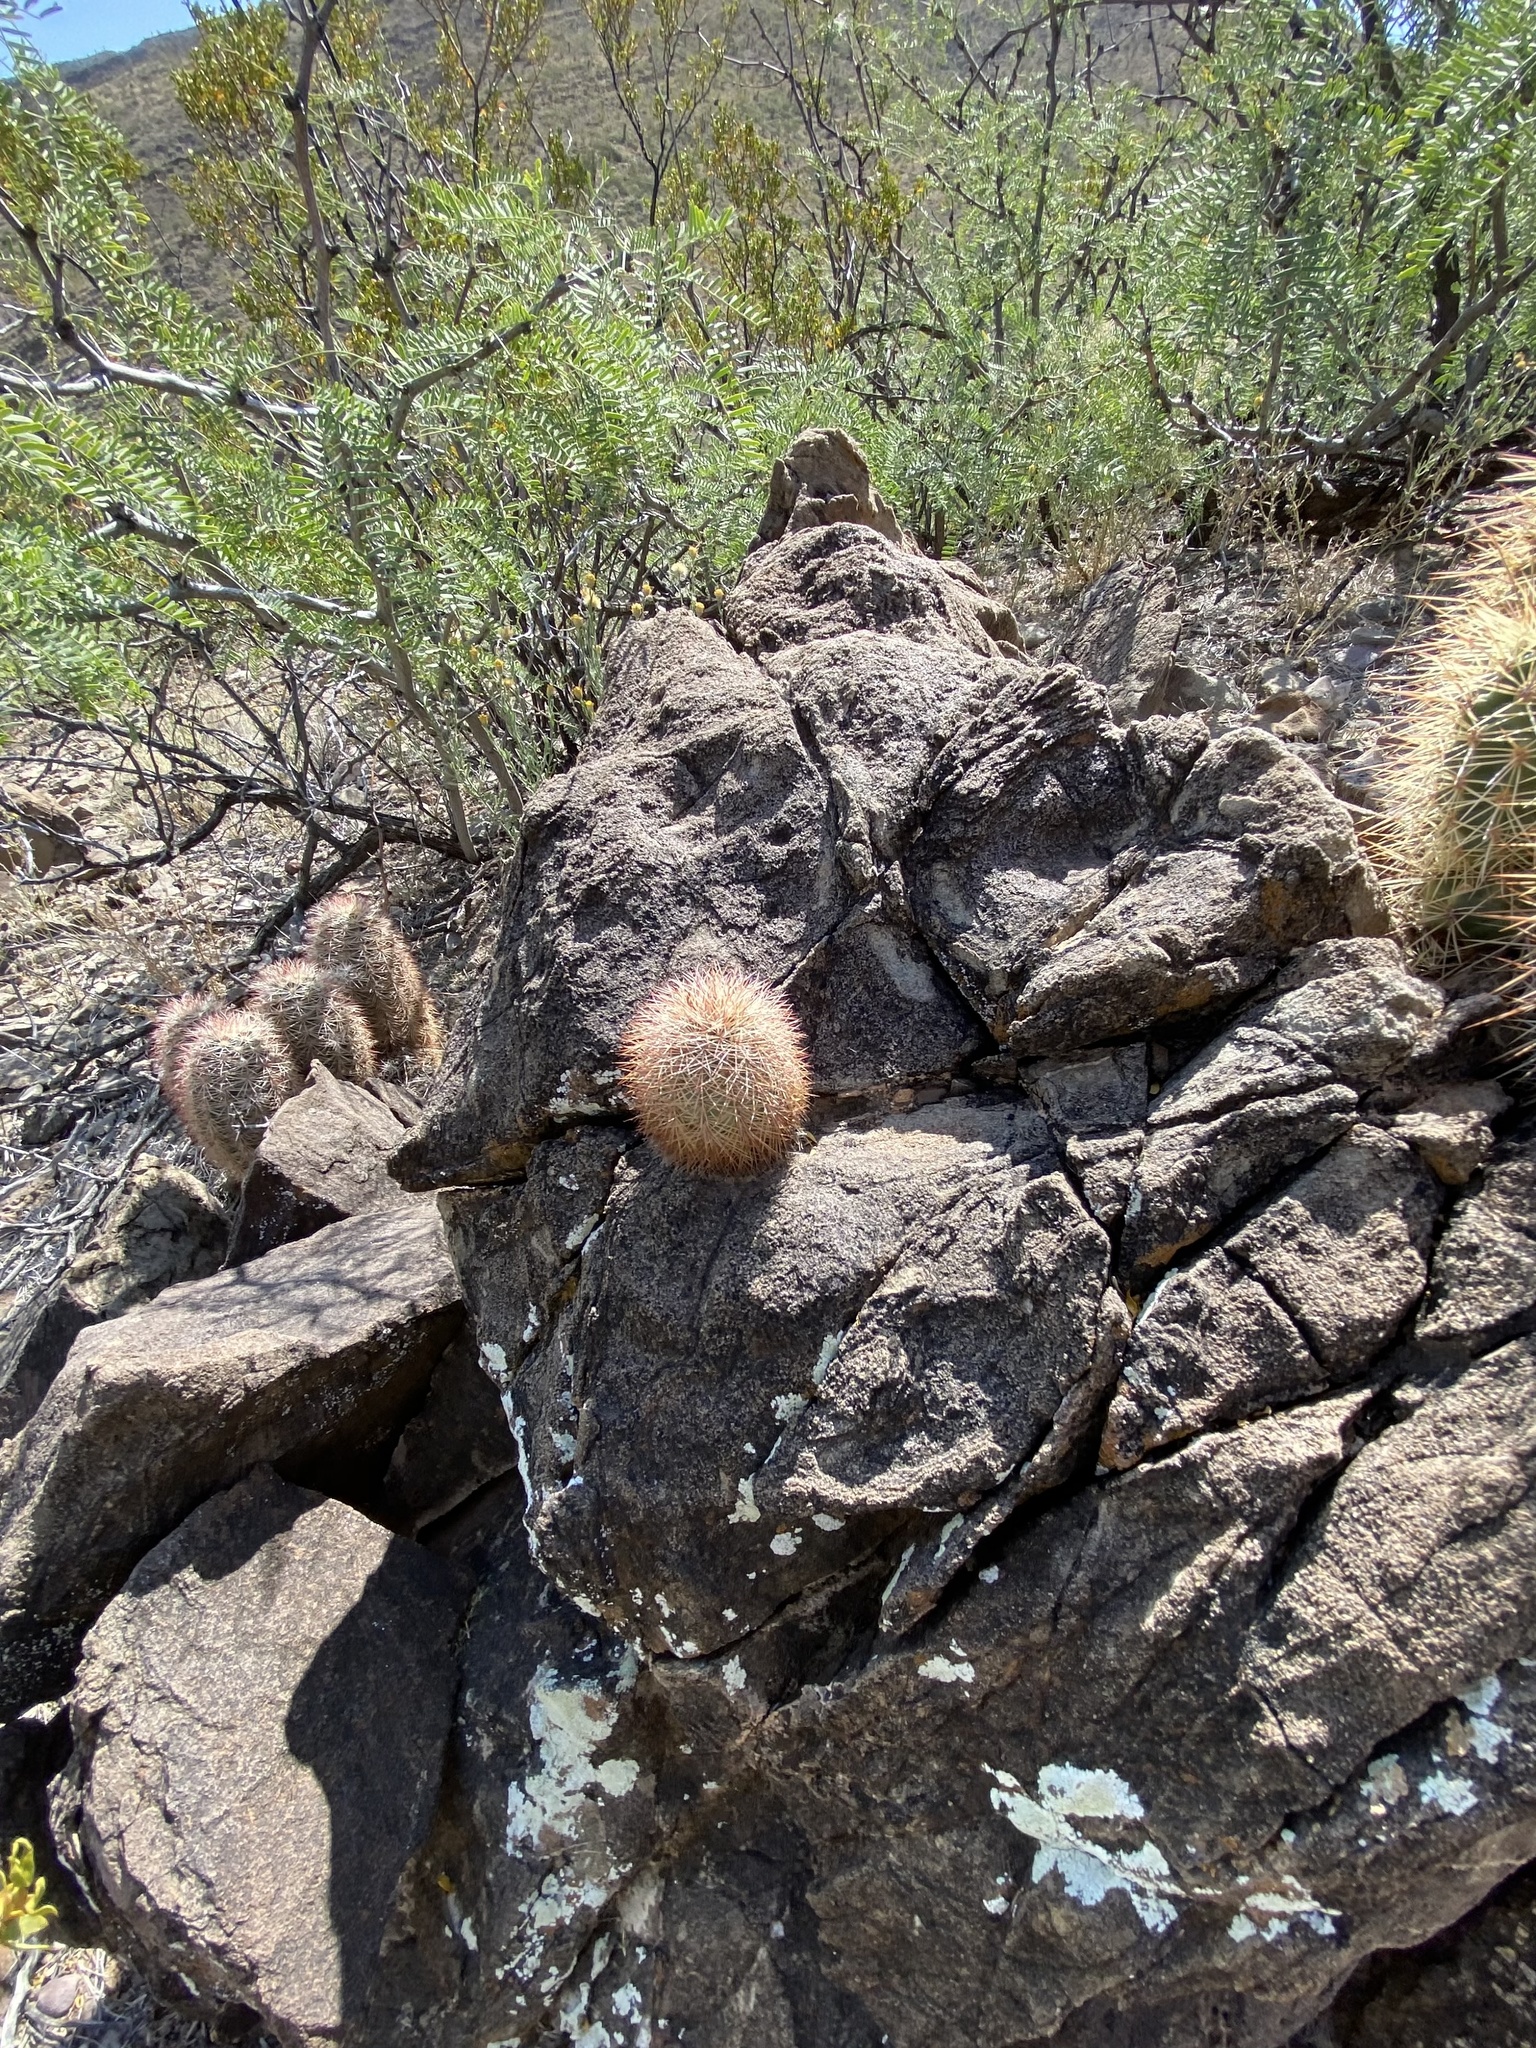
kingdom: Plantae
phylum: Tracheophyta
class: Magnoliopsida
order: Caryophyllales
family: Cactaceae
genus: Echinocereus
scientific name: Echinocereus dasyacanthus
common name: Spiny hedgehog cactus
